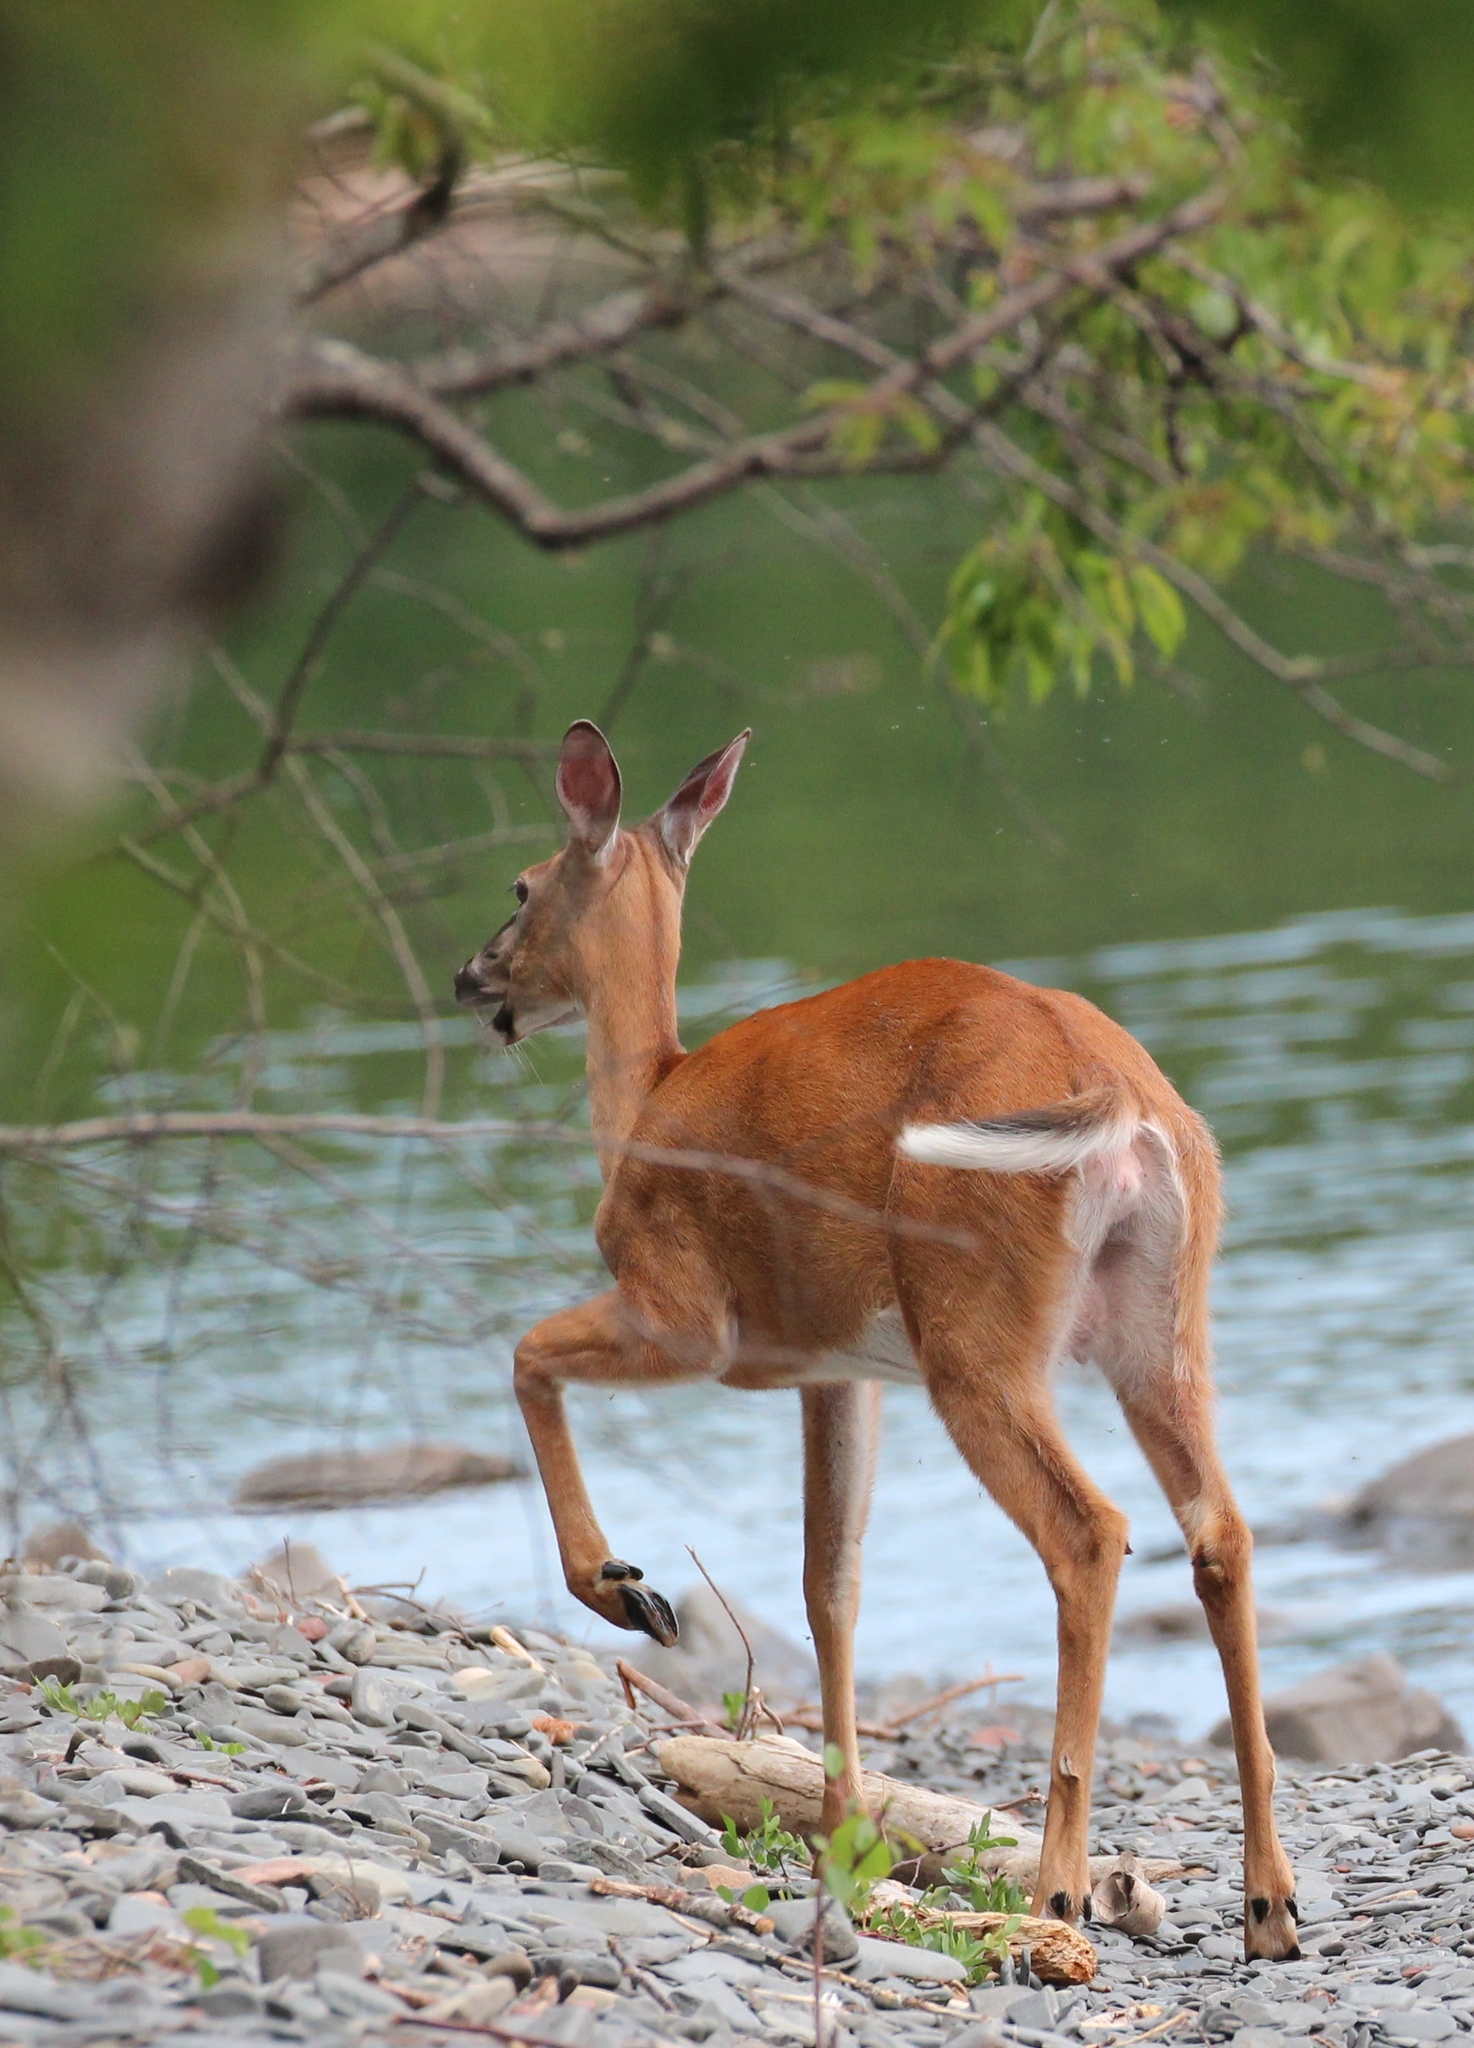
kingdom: Animalia
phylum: Chordata
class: Mammalia
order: Artiodactyla
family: Cervidae
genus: Odocoileus
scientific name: Odocoileus virginianus
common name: White-tailed deer
